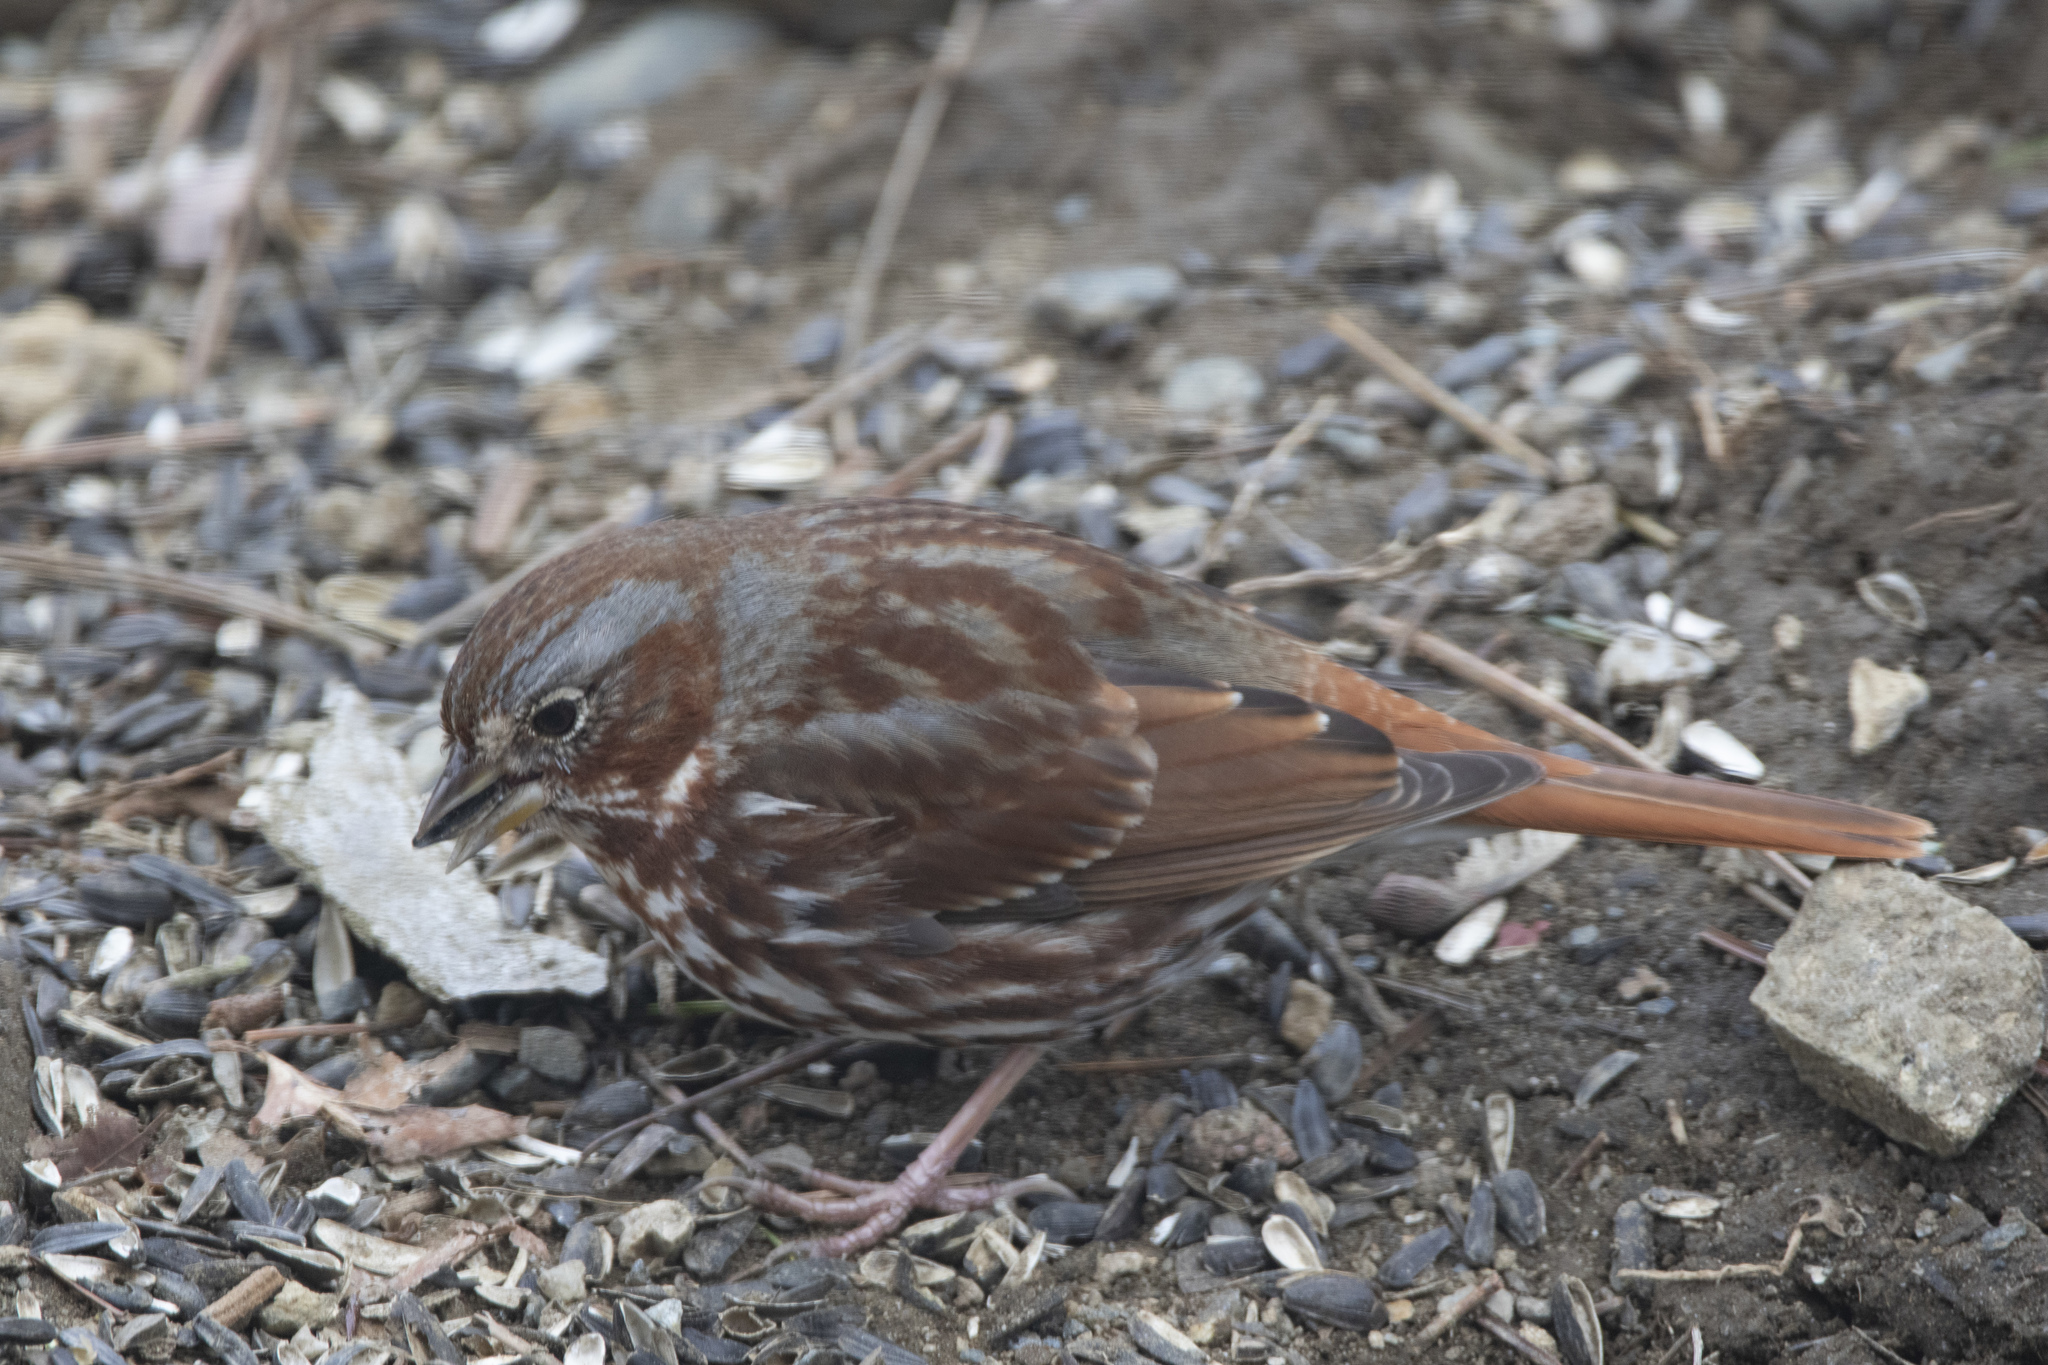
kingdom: Animalia
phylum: Chordata
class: Aves
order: Passeriformes
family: Passerellidae
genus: Passerella
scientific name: Passerella iliaca
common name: Fox sparrow
